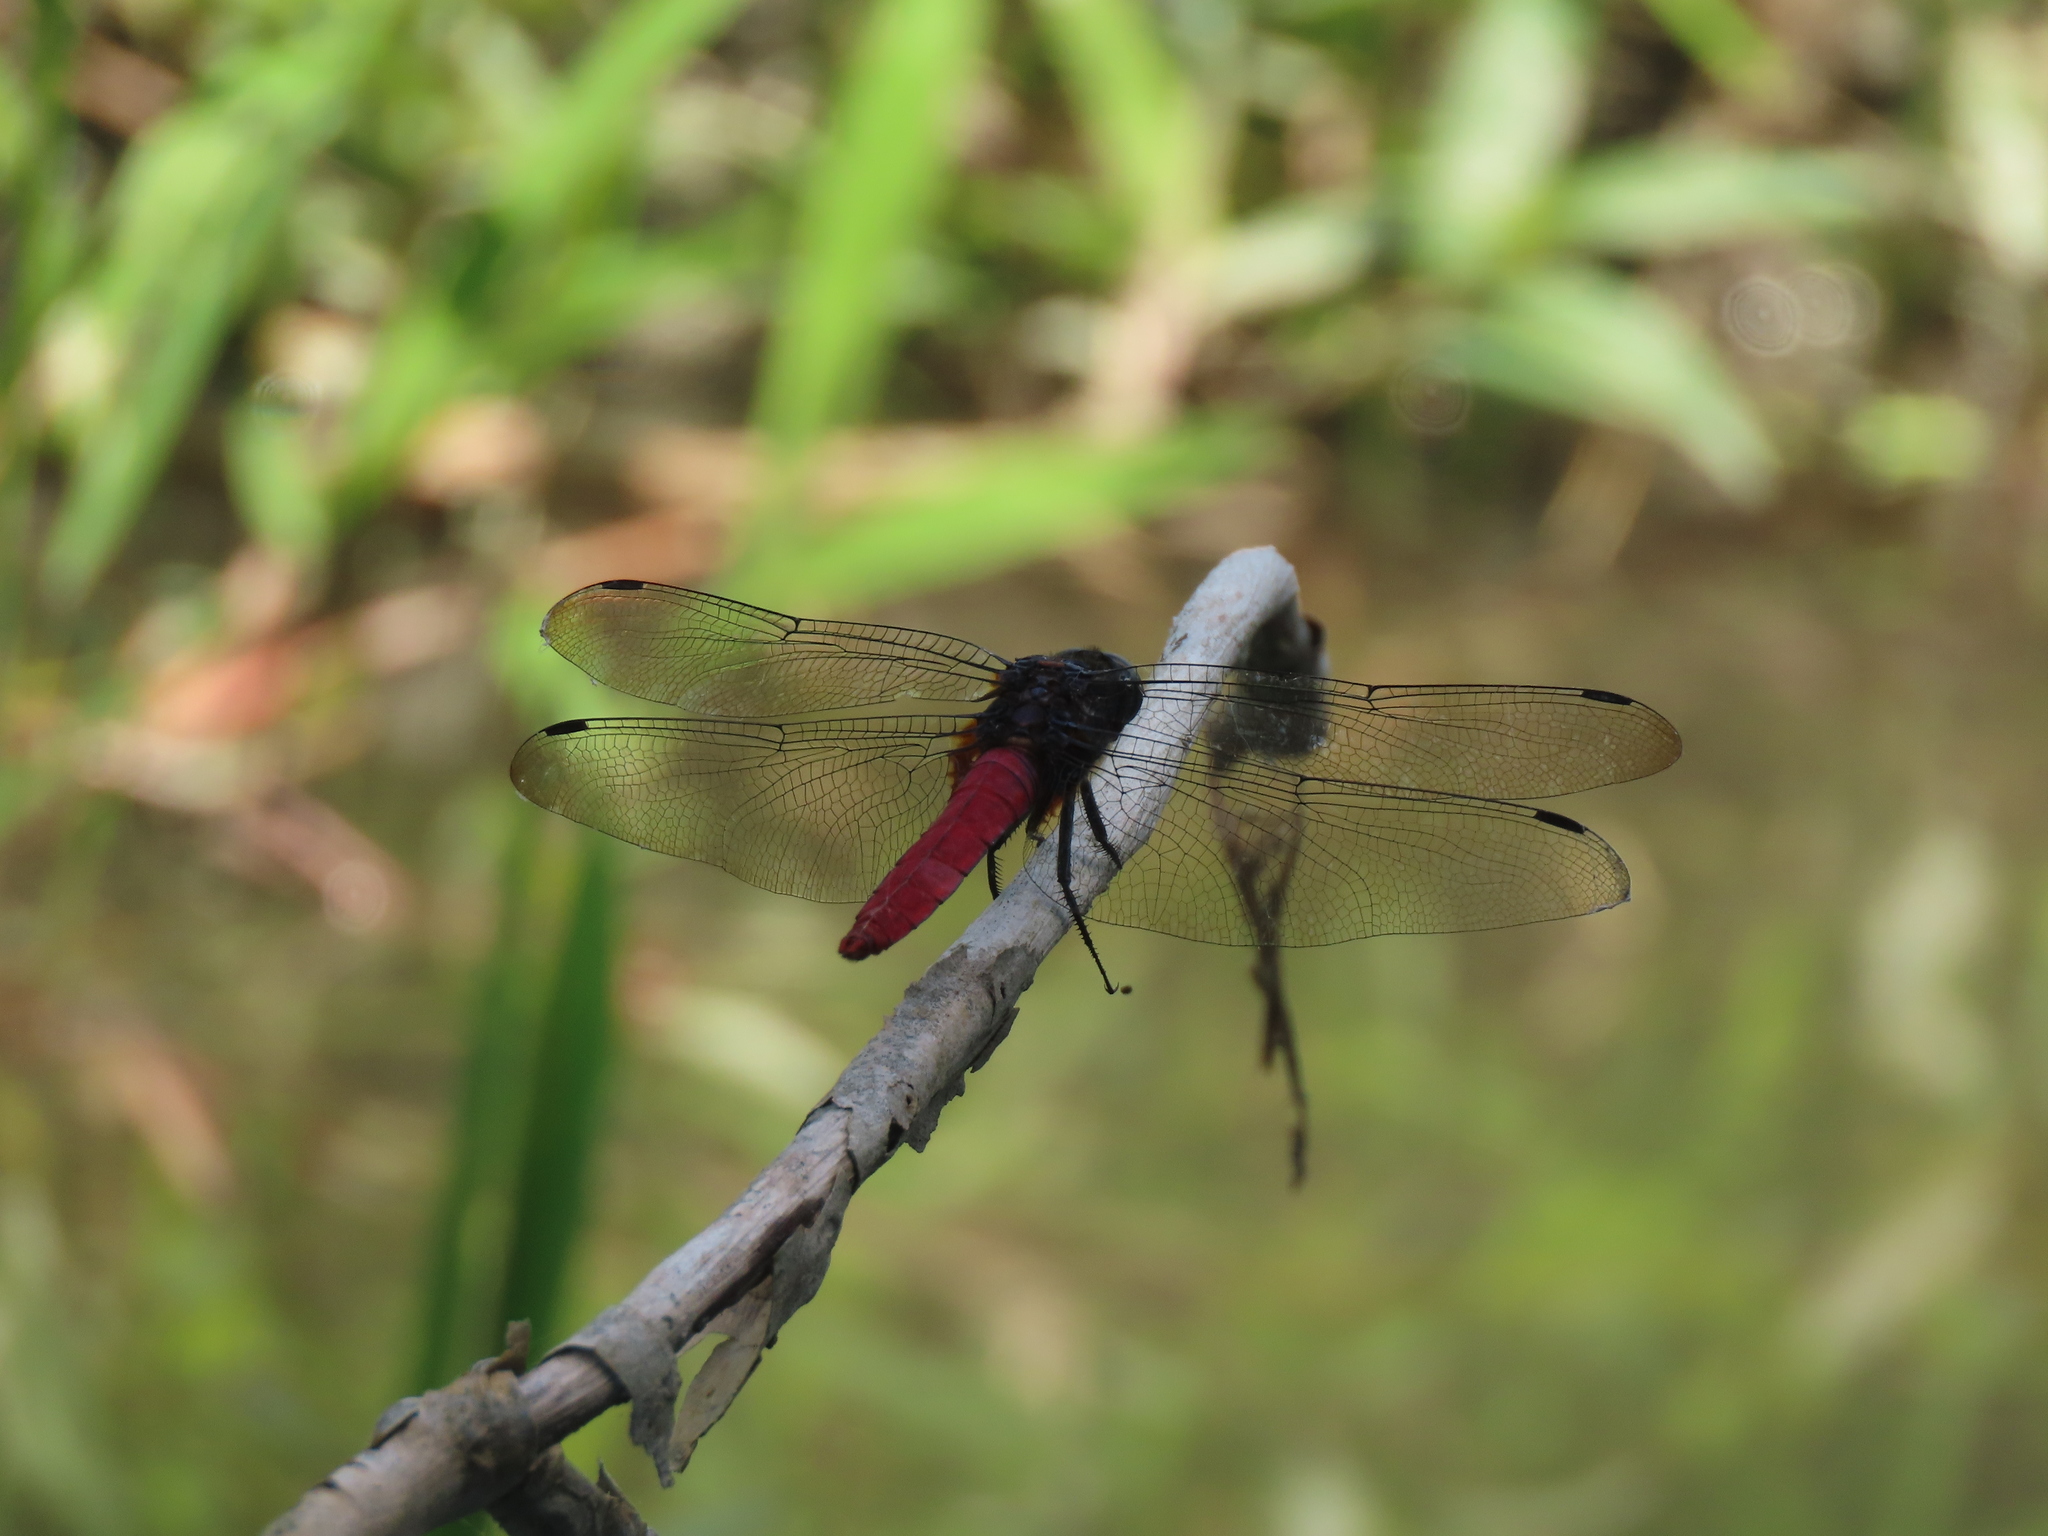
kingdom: Animalia
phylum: Arthropoda
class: Insecta
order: Odonata
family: Libellulidae
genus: Orthetrum
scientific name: Orthetrum pruinosum
